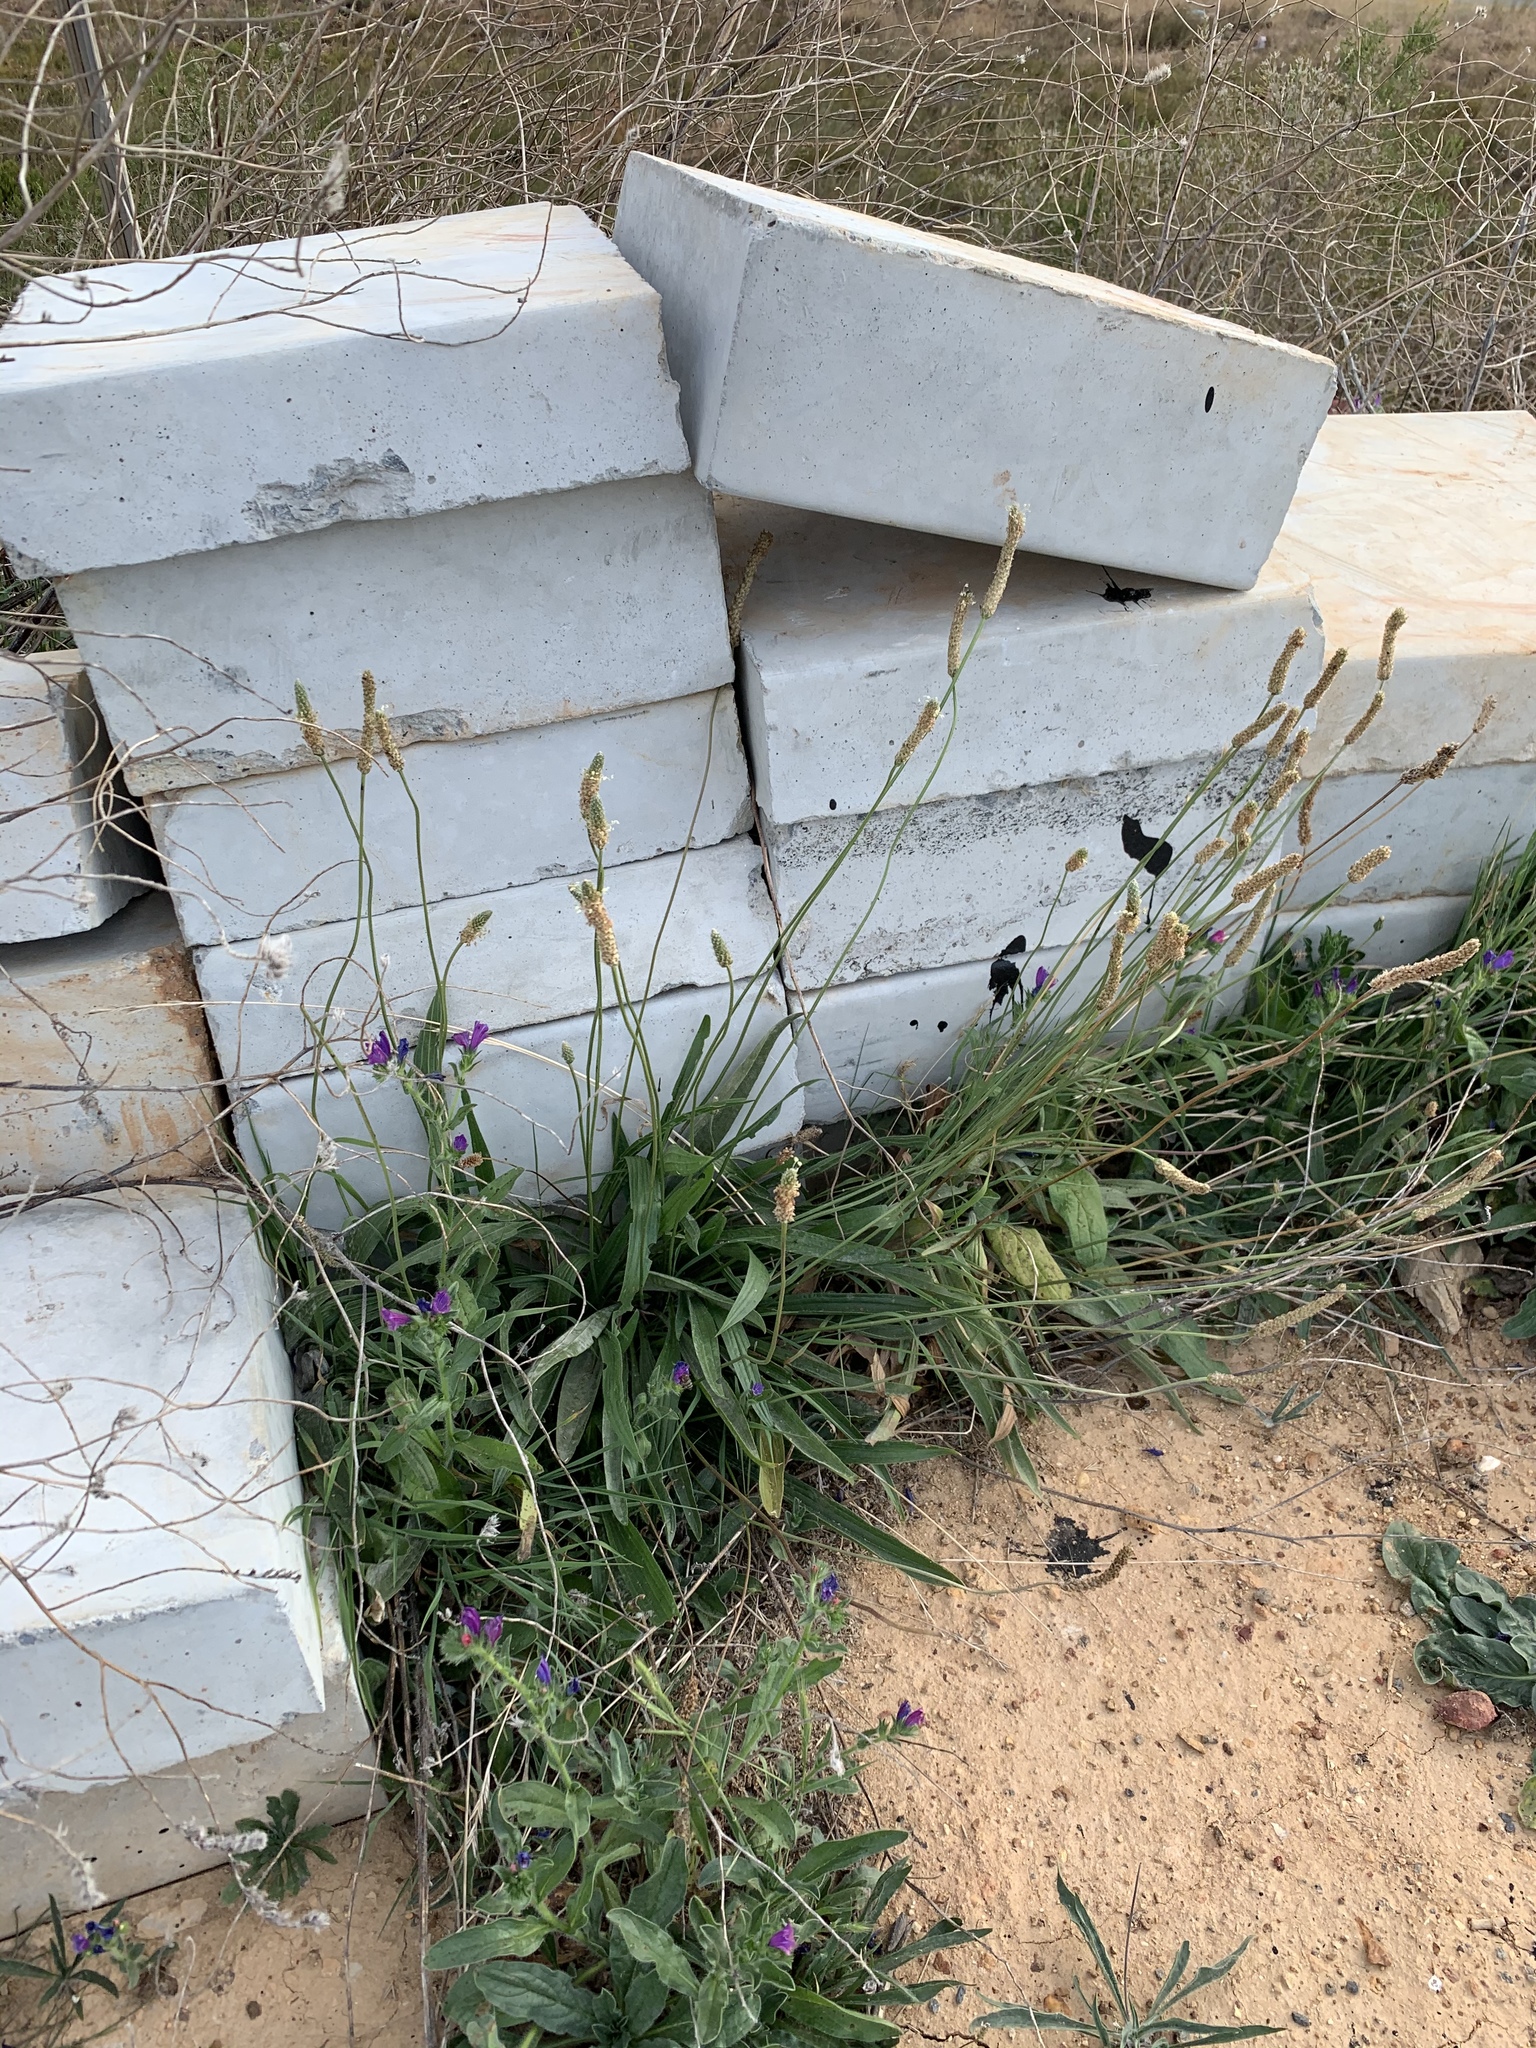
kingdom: Plantae
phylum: Tracheophyta
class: Magnoliopsida
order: Lamiales
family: Plantaginaceae
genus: Plantago
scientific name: Plantago lanceolata
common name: Ribwort plantain
